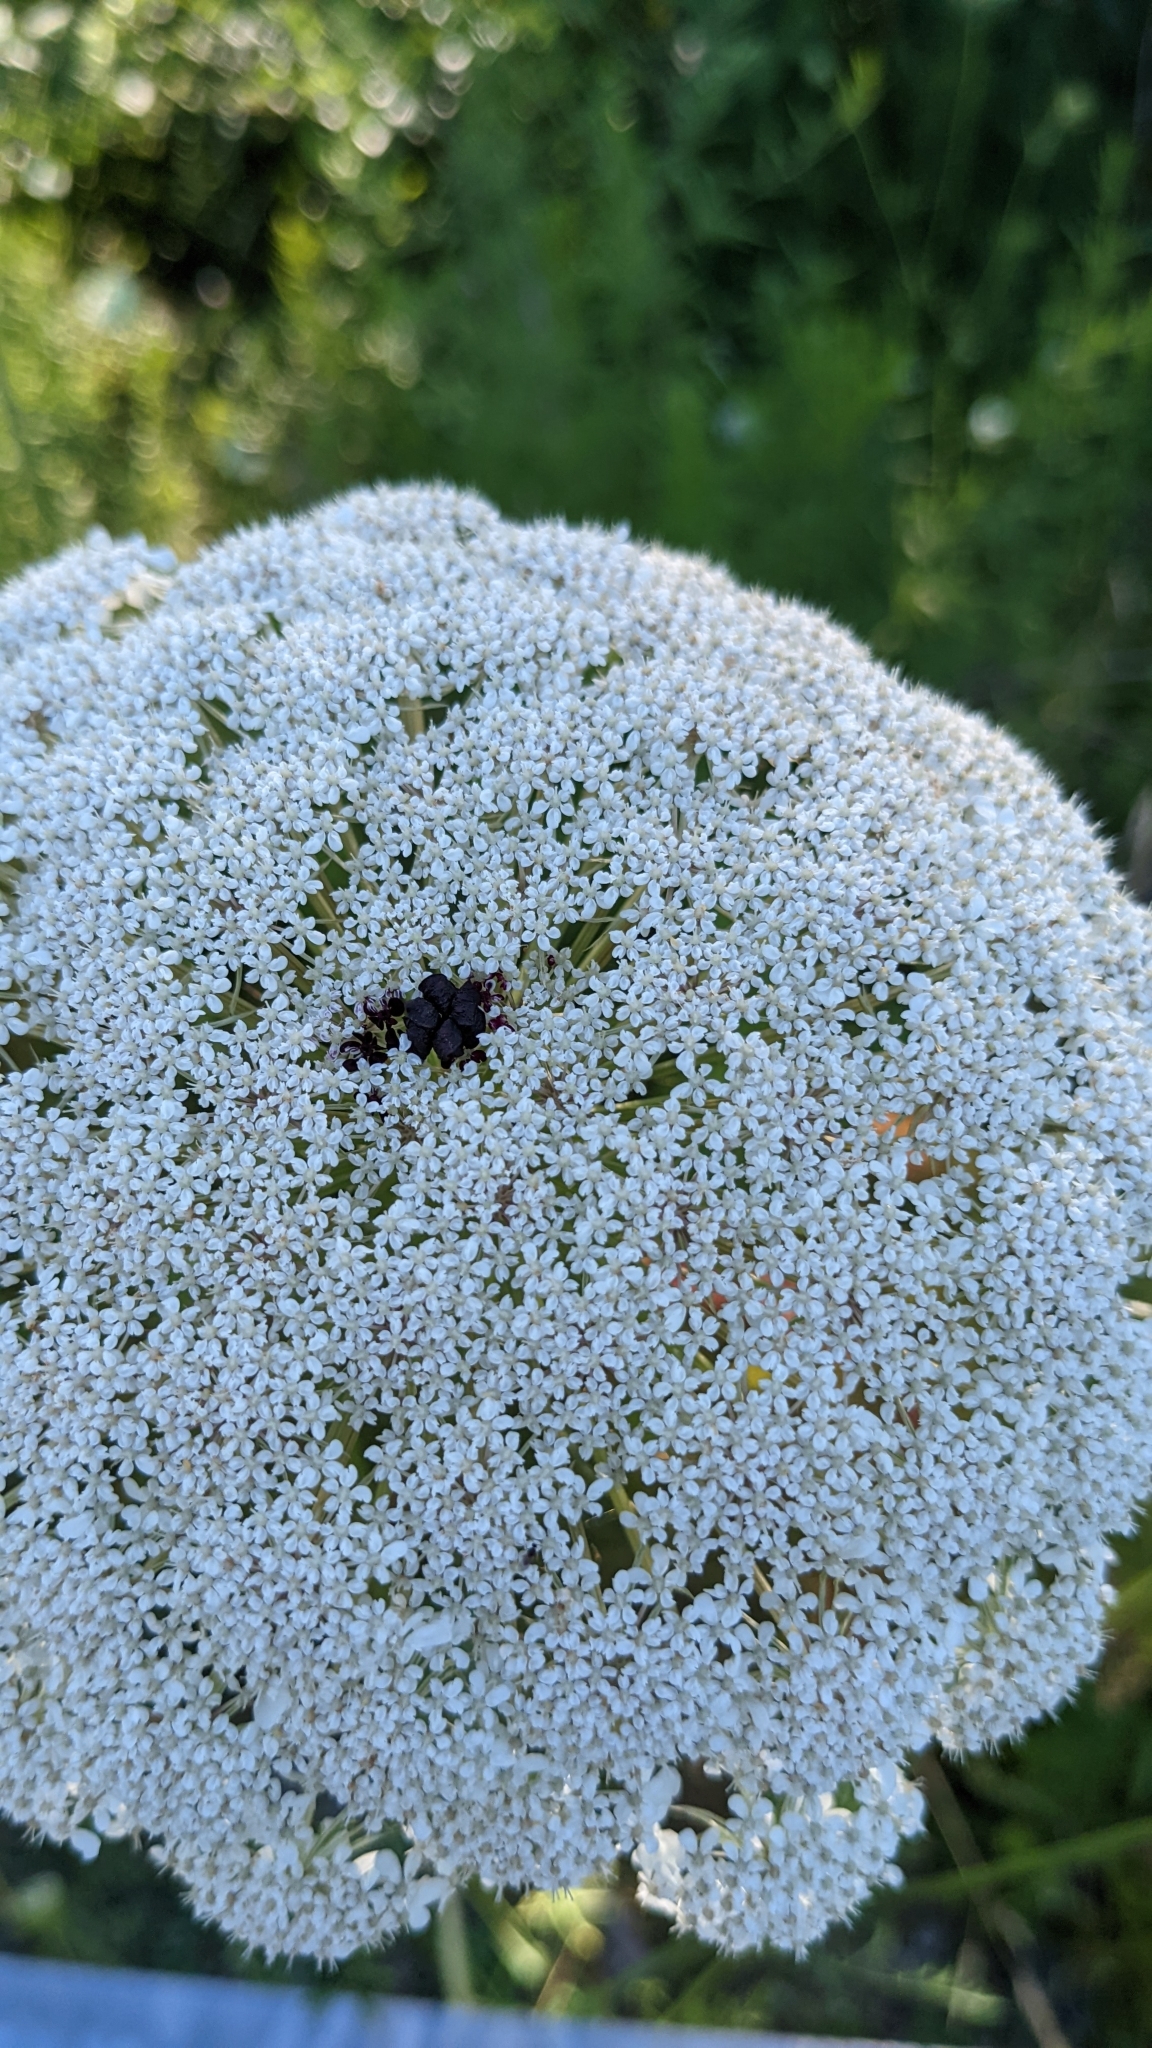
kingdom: Plantae
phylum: Tracheophyta
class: Magnoliopsida
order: Apiales
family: Apiaceae
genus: Daucus
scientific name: Daucus carota
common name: Wild carrot
